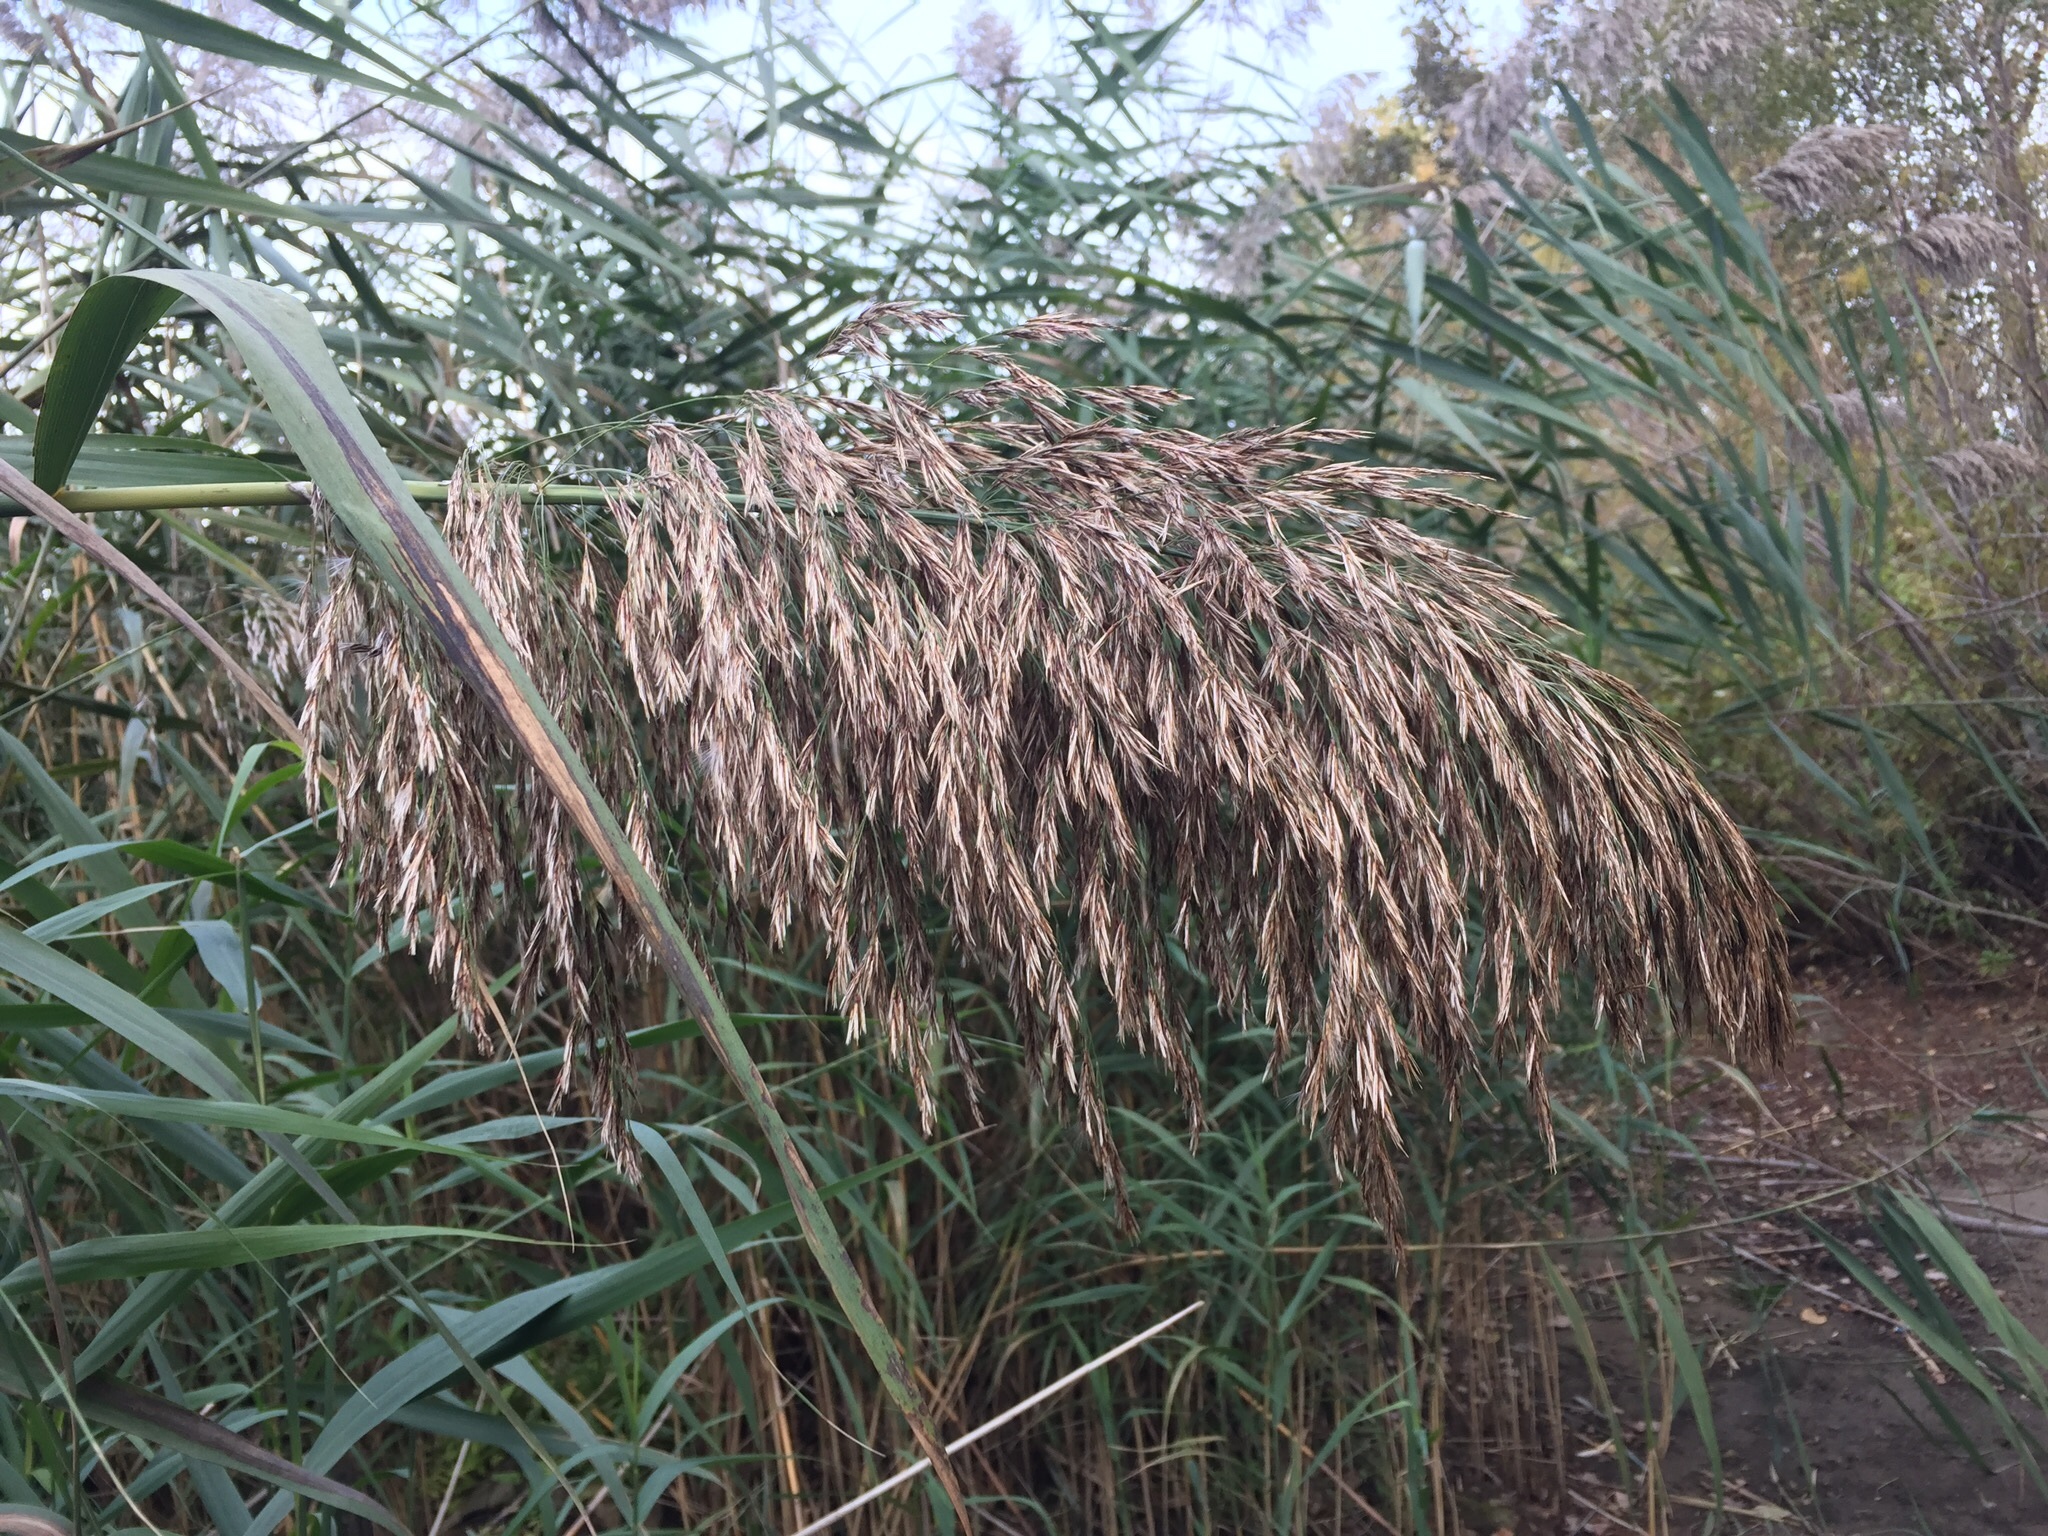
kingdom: Plantae
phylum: Tracheophyta
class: Liliopsida
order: Poales
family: Poaceae
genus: Phragmites
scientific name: Phragmites australis
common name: Common reed
